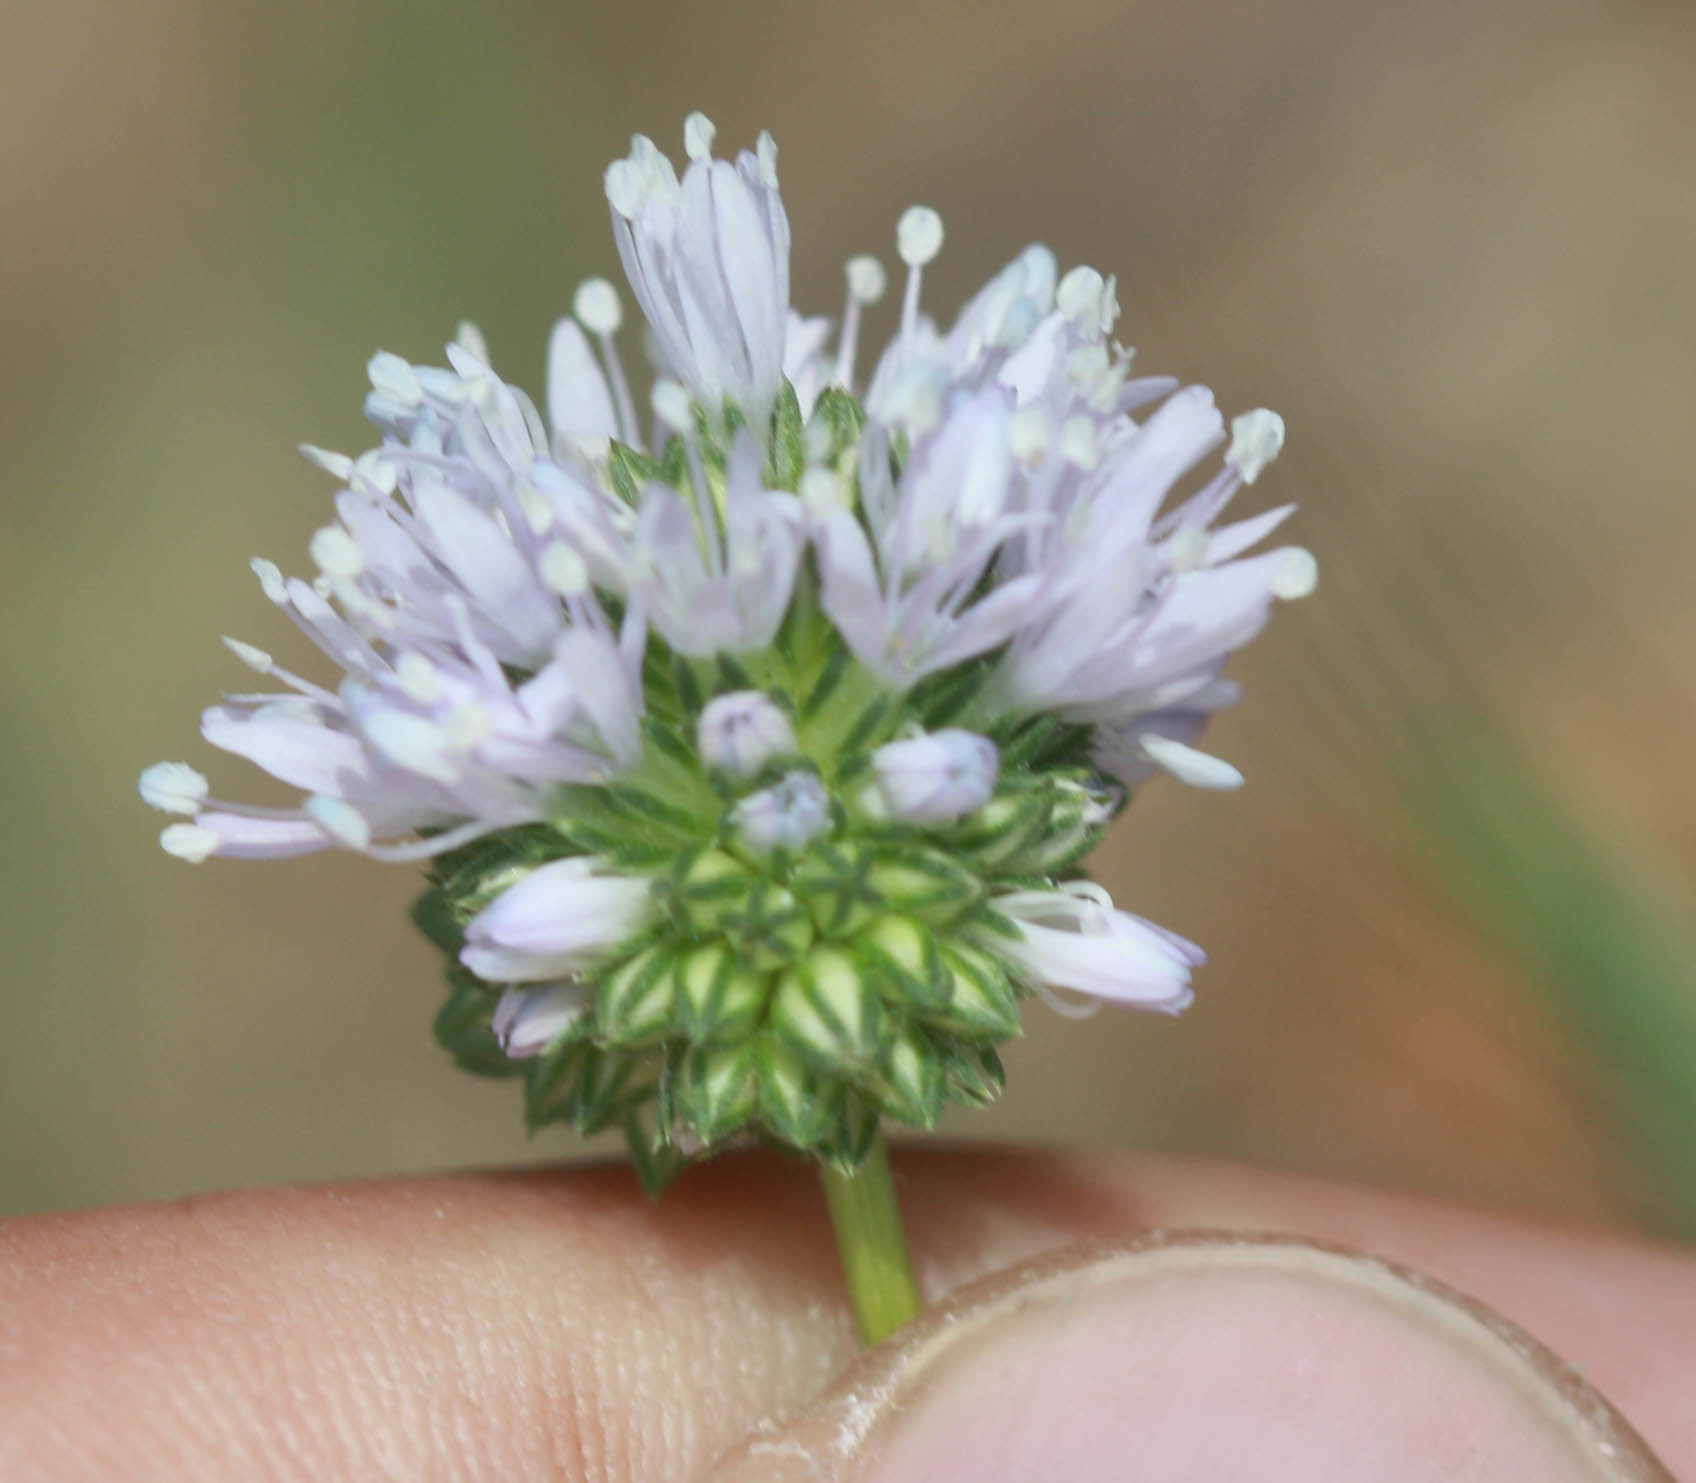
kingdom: Plantae
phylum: Tracheophyta
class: Magnoliopsida
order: Ericales
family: Polemoniaceae
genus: Gilia
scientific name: Gilia capitata
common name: Bluehead gilia
